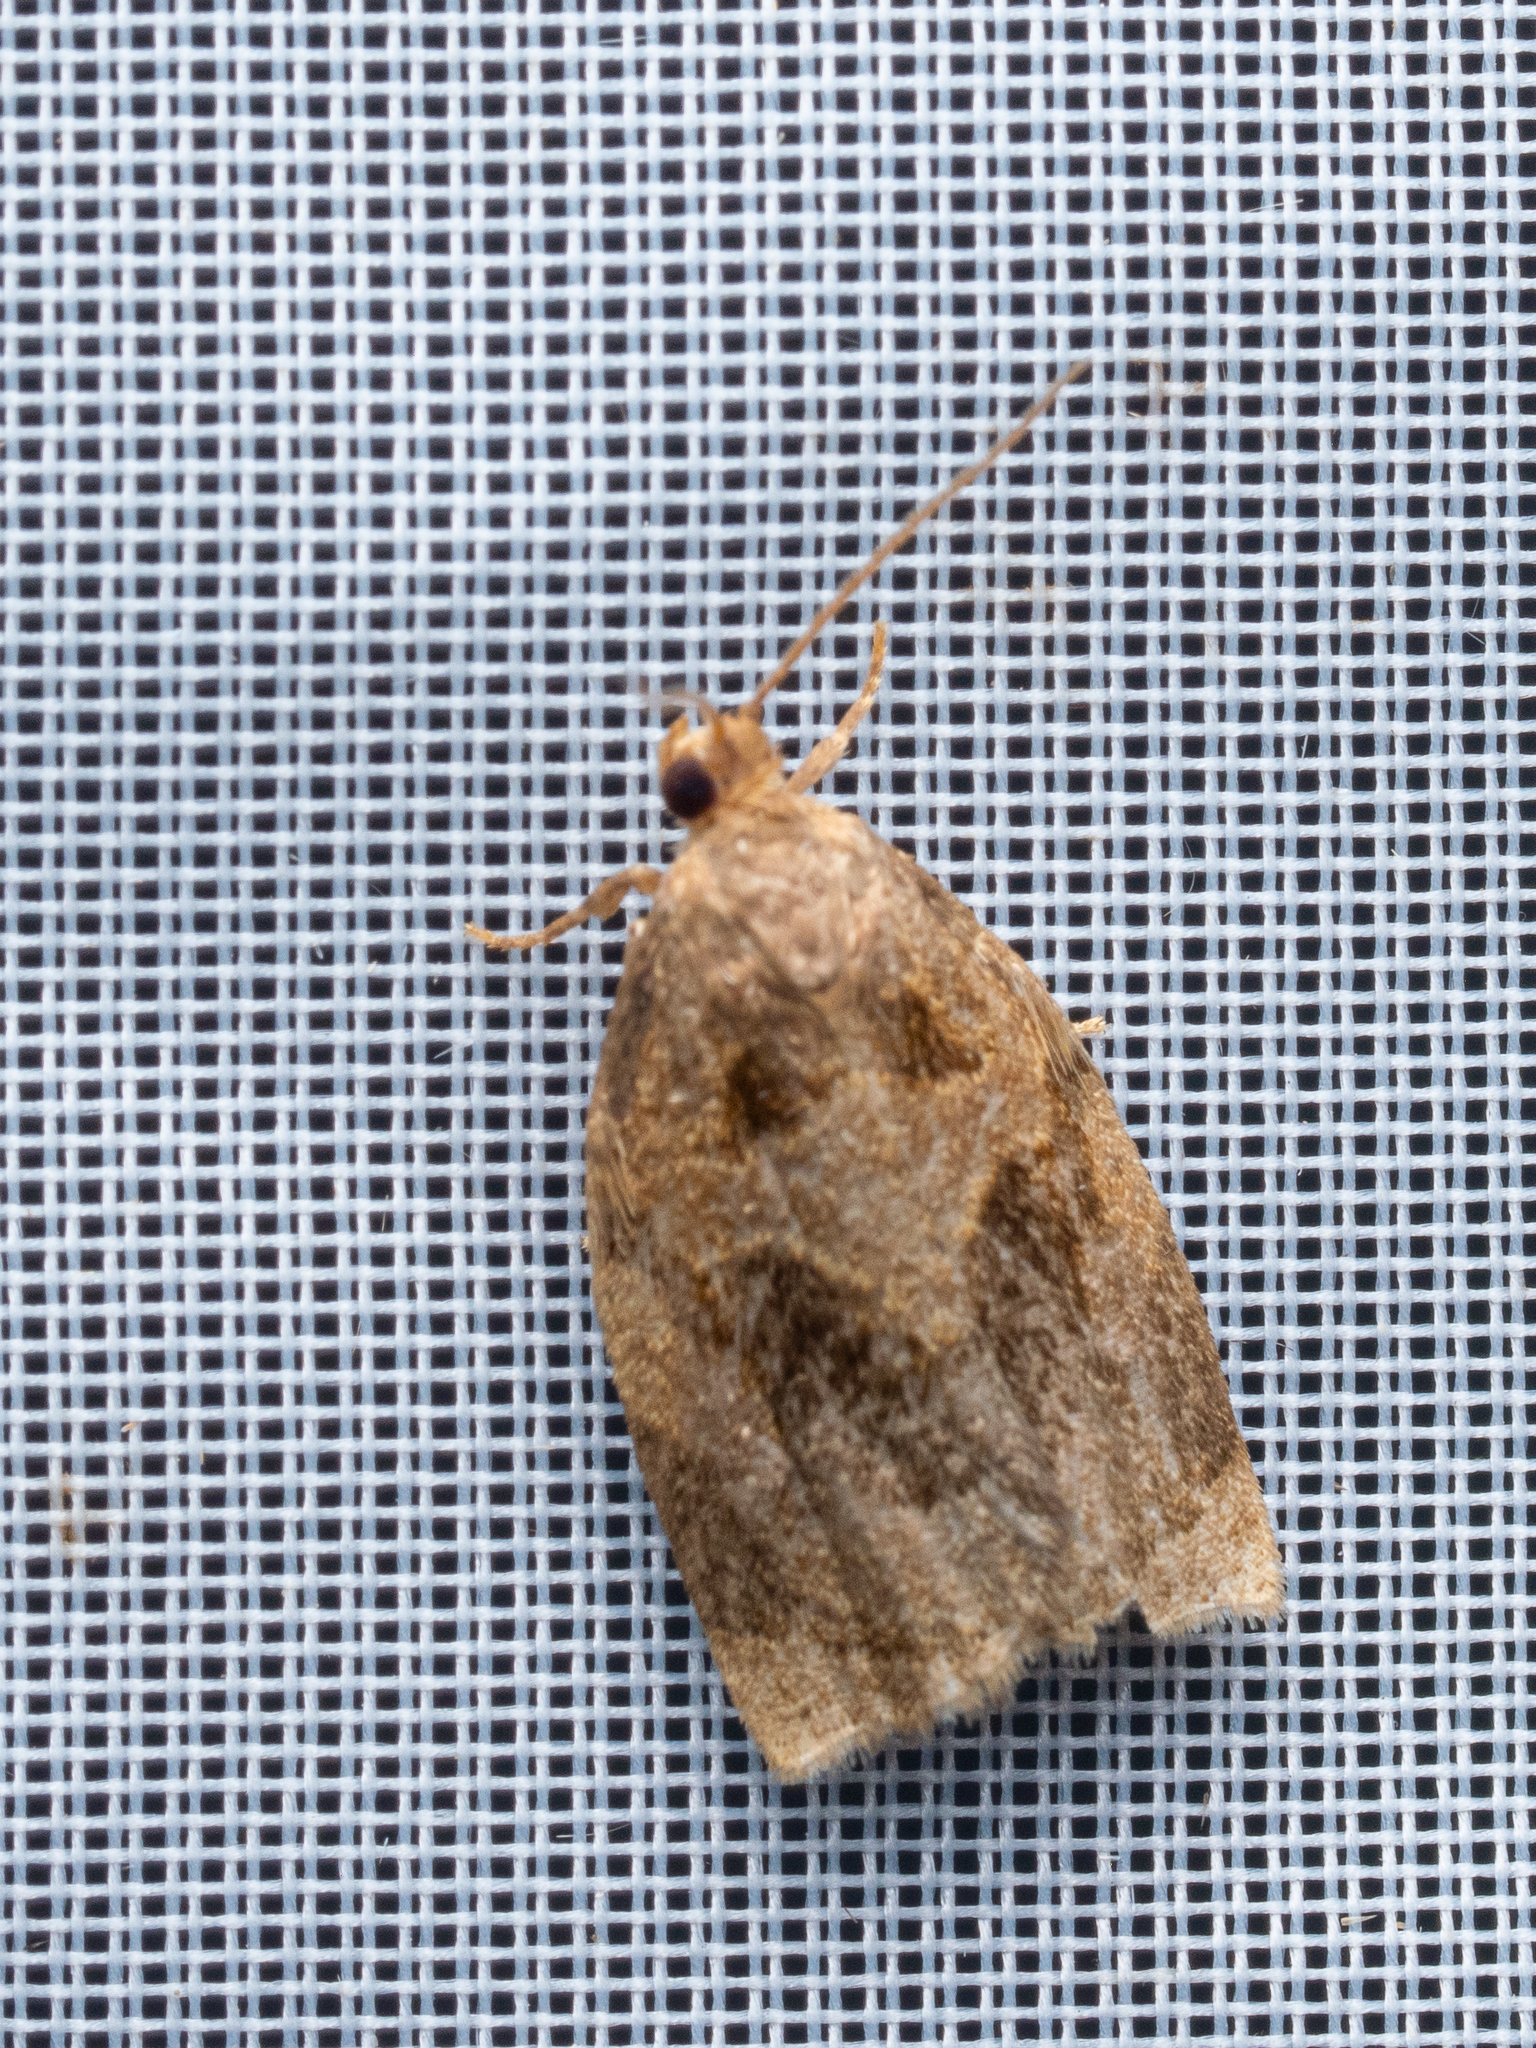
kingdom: Animalia
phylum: Arthropoda
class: Insecta
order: Lepidoptera
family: Tortricidae
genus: Archips
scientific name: Archips rosana
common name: Rose tortrix
